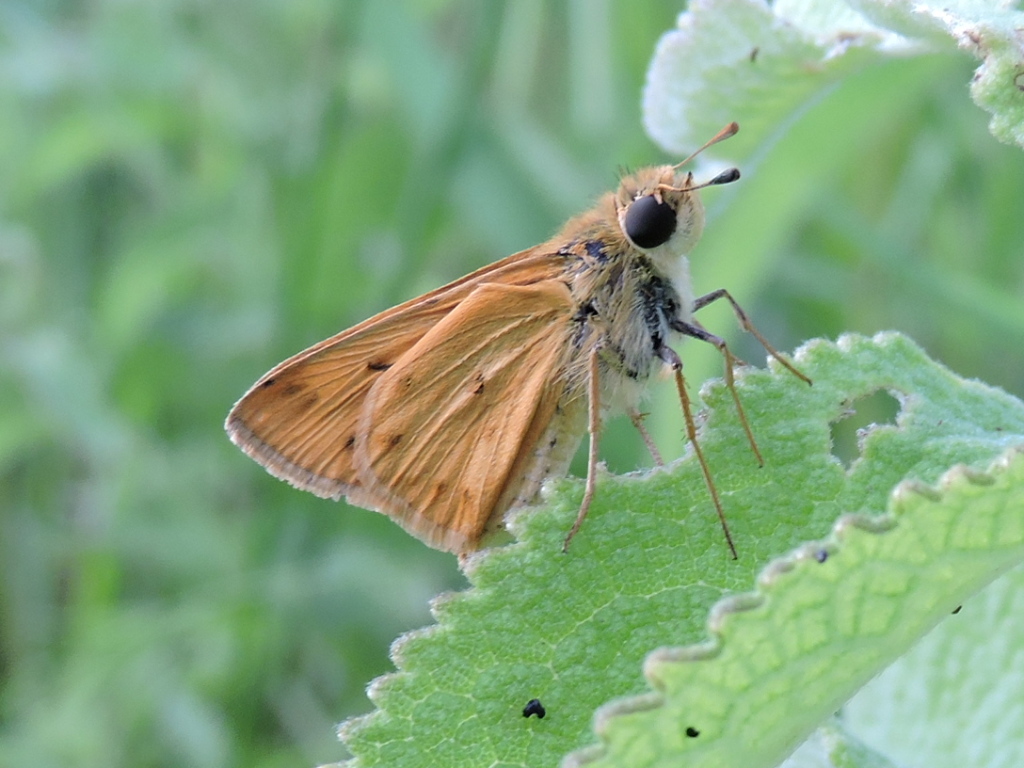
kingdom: Animalia
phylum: Arthropoda
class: Insecta
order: Lepidoptera
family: Hesperiidae
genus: Hylephila
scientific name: Hylephila phyleus
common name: Fiery skipper
